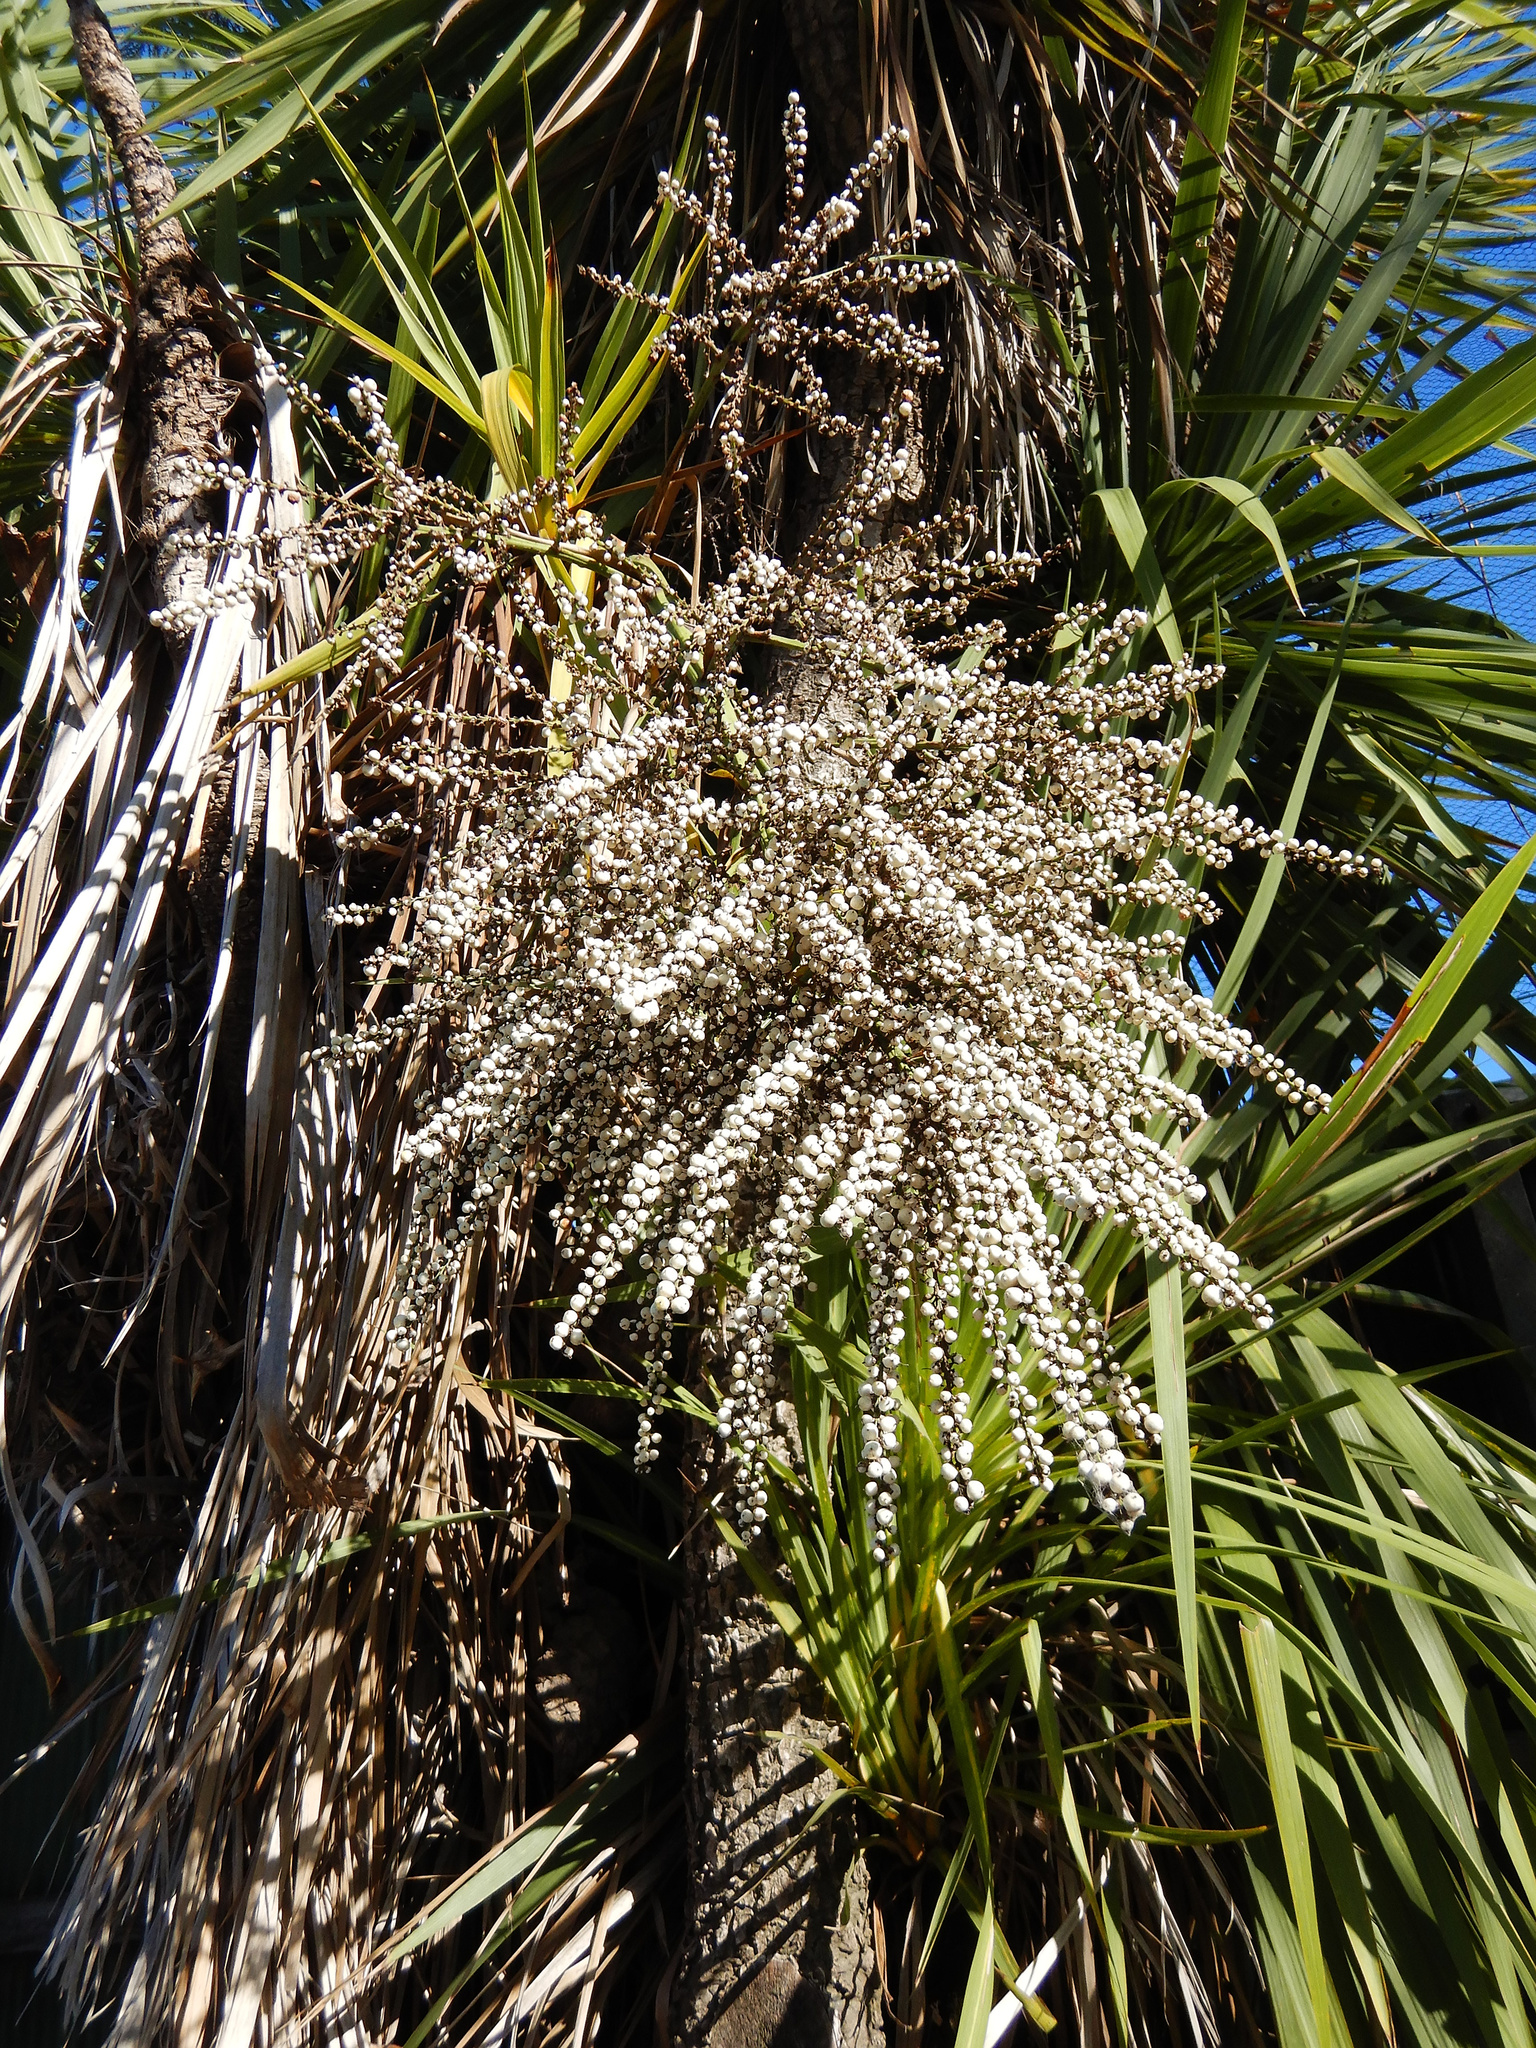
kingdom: Plantae
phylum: Tracheophyta
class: Liliopsida
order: Asparagales
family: Asparagaceae
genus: Cordyline
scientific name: Cordyline australis
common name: Cabbage-palm
